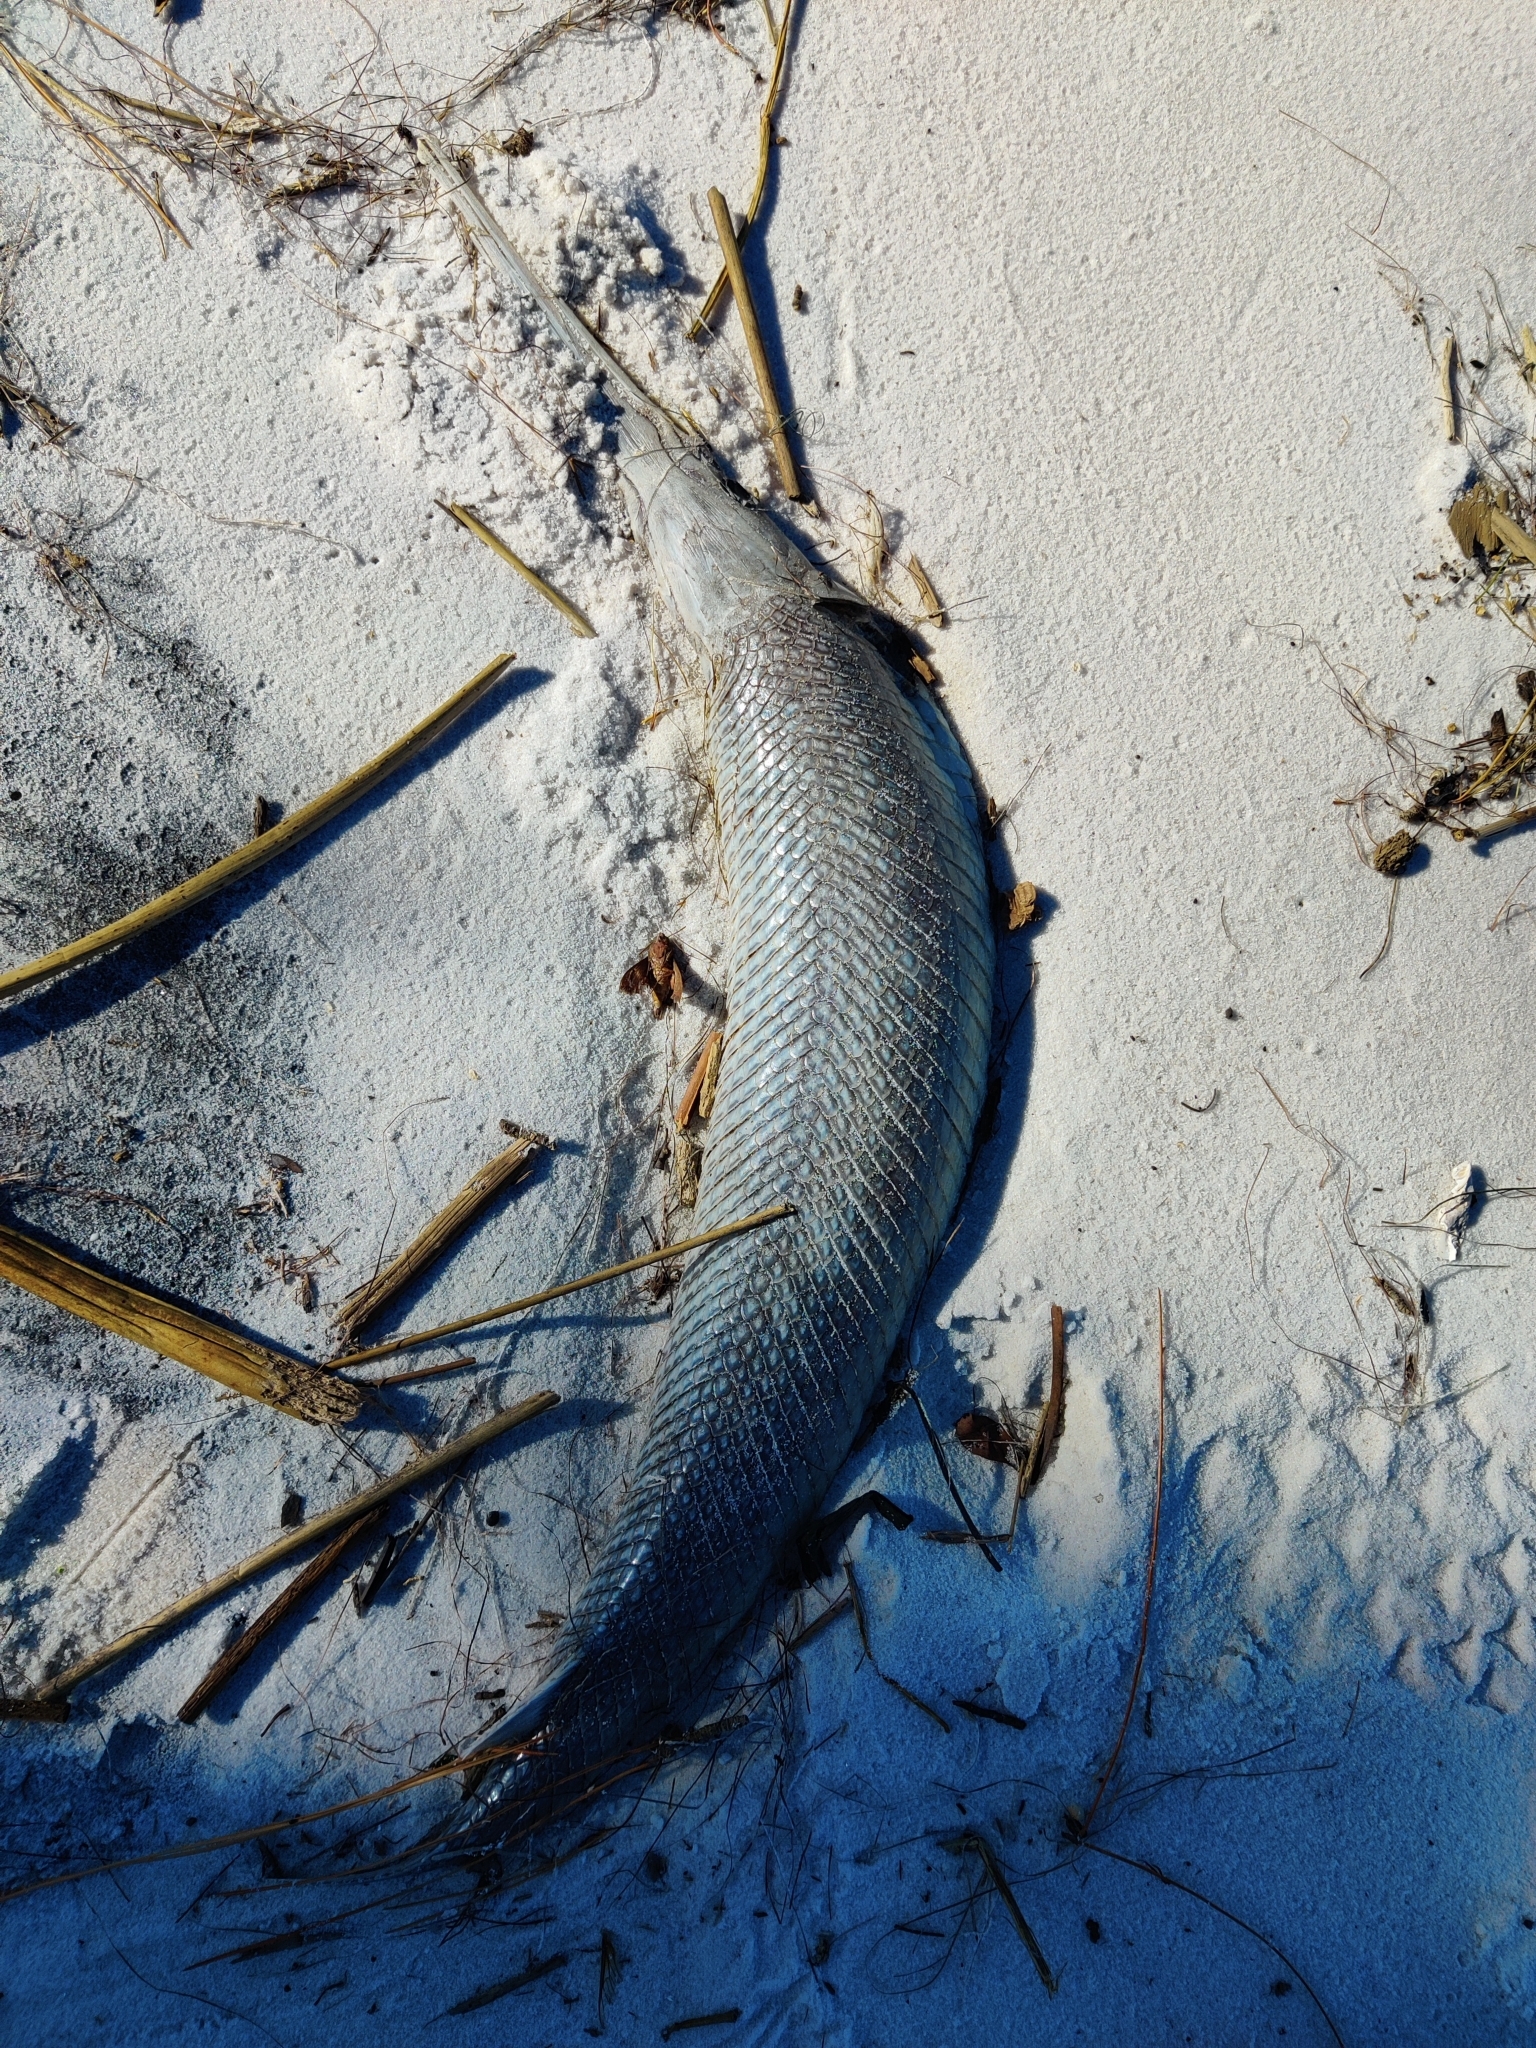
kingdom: Animalia
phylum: Chordata
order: Lepisosteiformes
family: Lepisosteidae
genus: Lepisosteus
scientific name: Lepisosteus osseus
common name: Longnose gar
